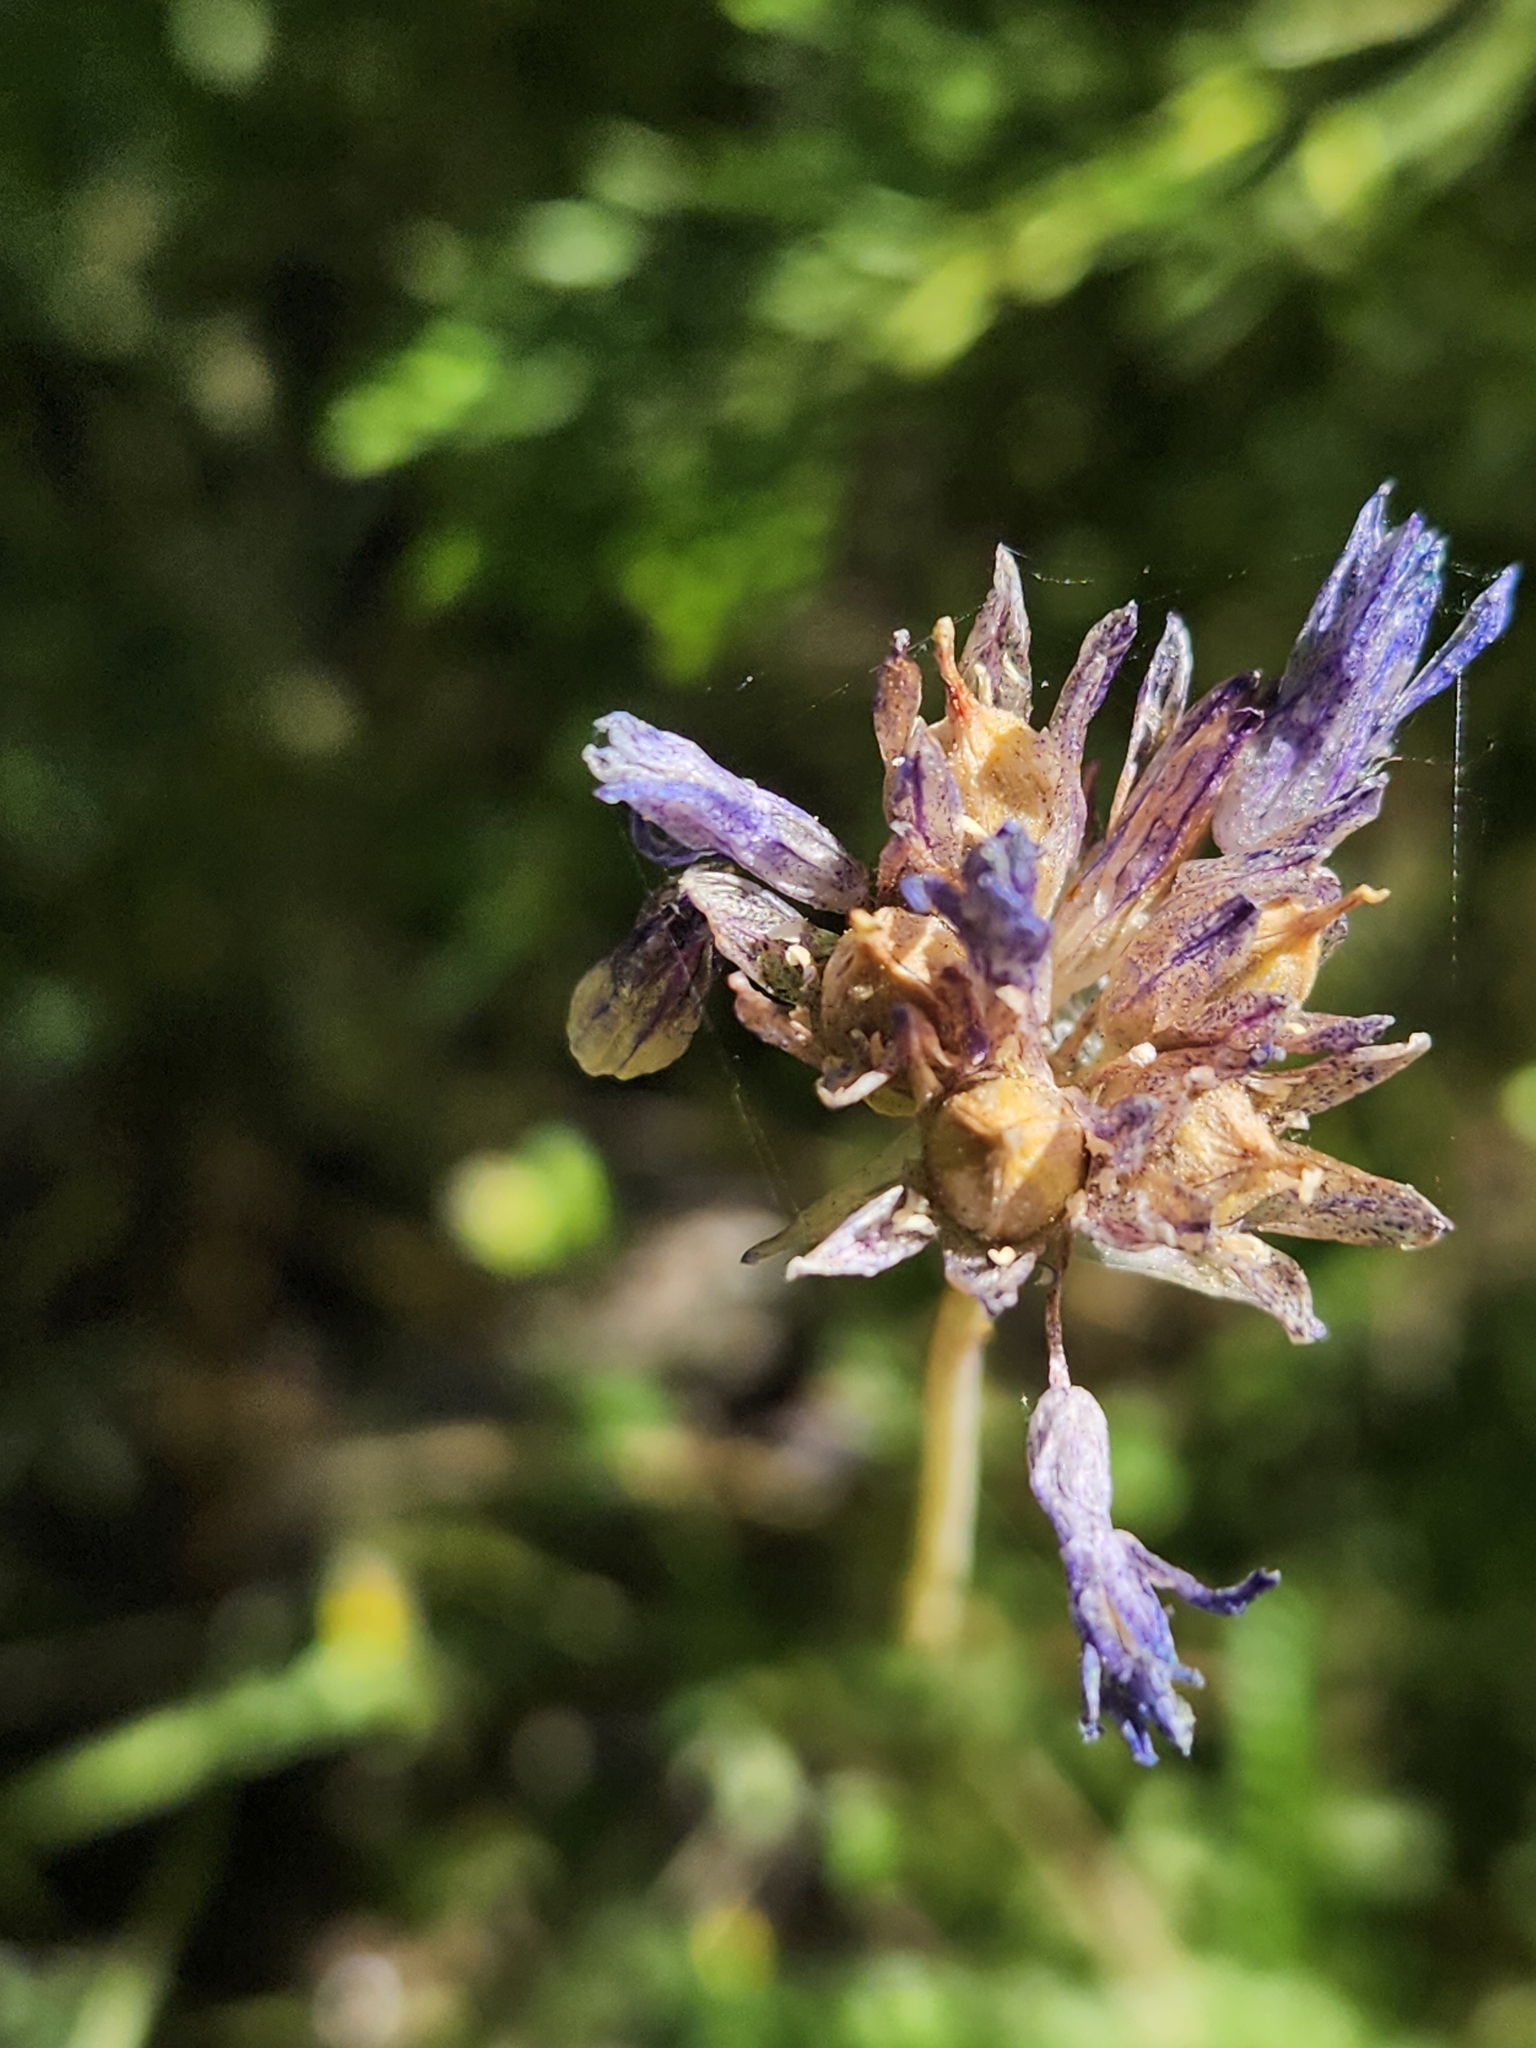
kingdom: Plantae
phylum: Tracheophyta
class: Liliopsida
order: Asparagales
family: Asparagaceae
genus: Dipterostemon
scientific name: Dipterostemon capitatus
